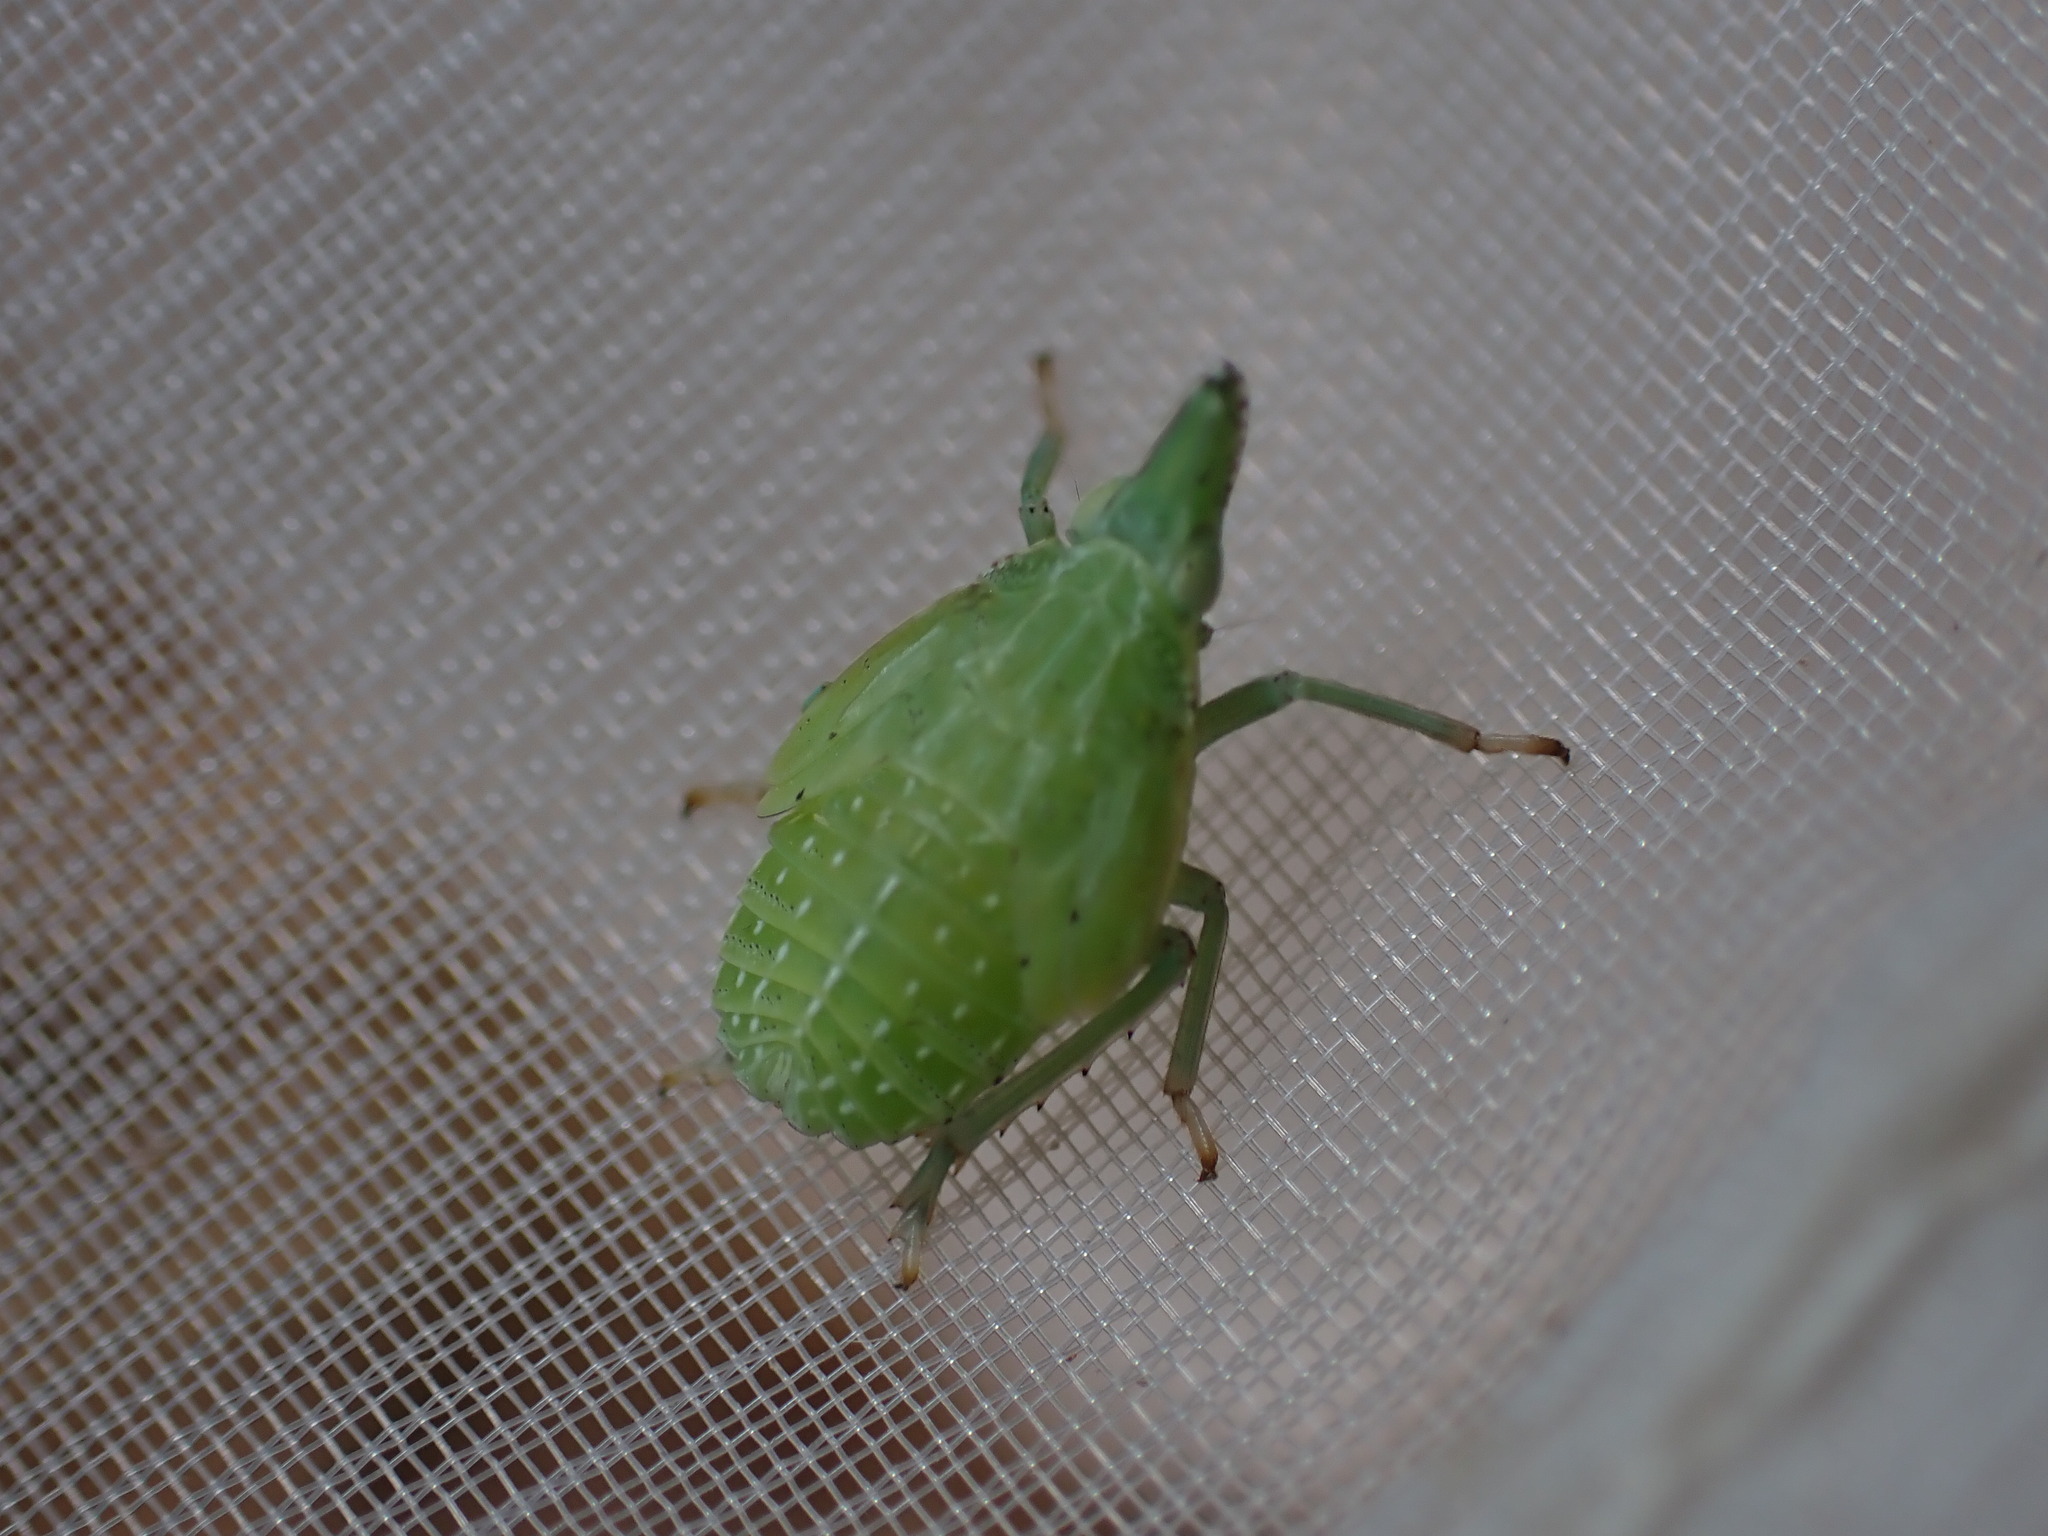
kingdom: Animalia
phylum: Arthropoda
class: Insecta
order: Hemiptera
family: Dictyopharidae
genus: Dictyophara
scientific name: Dictyophara europaea
